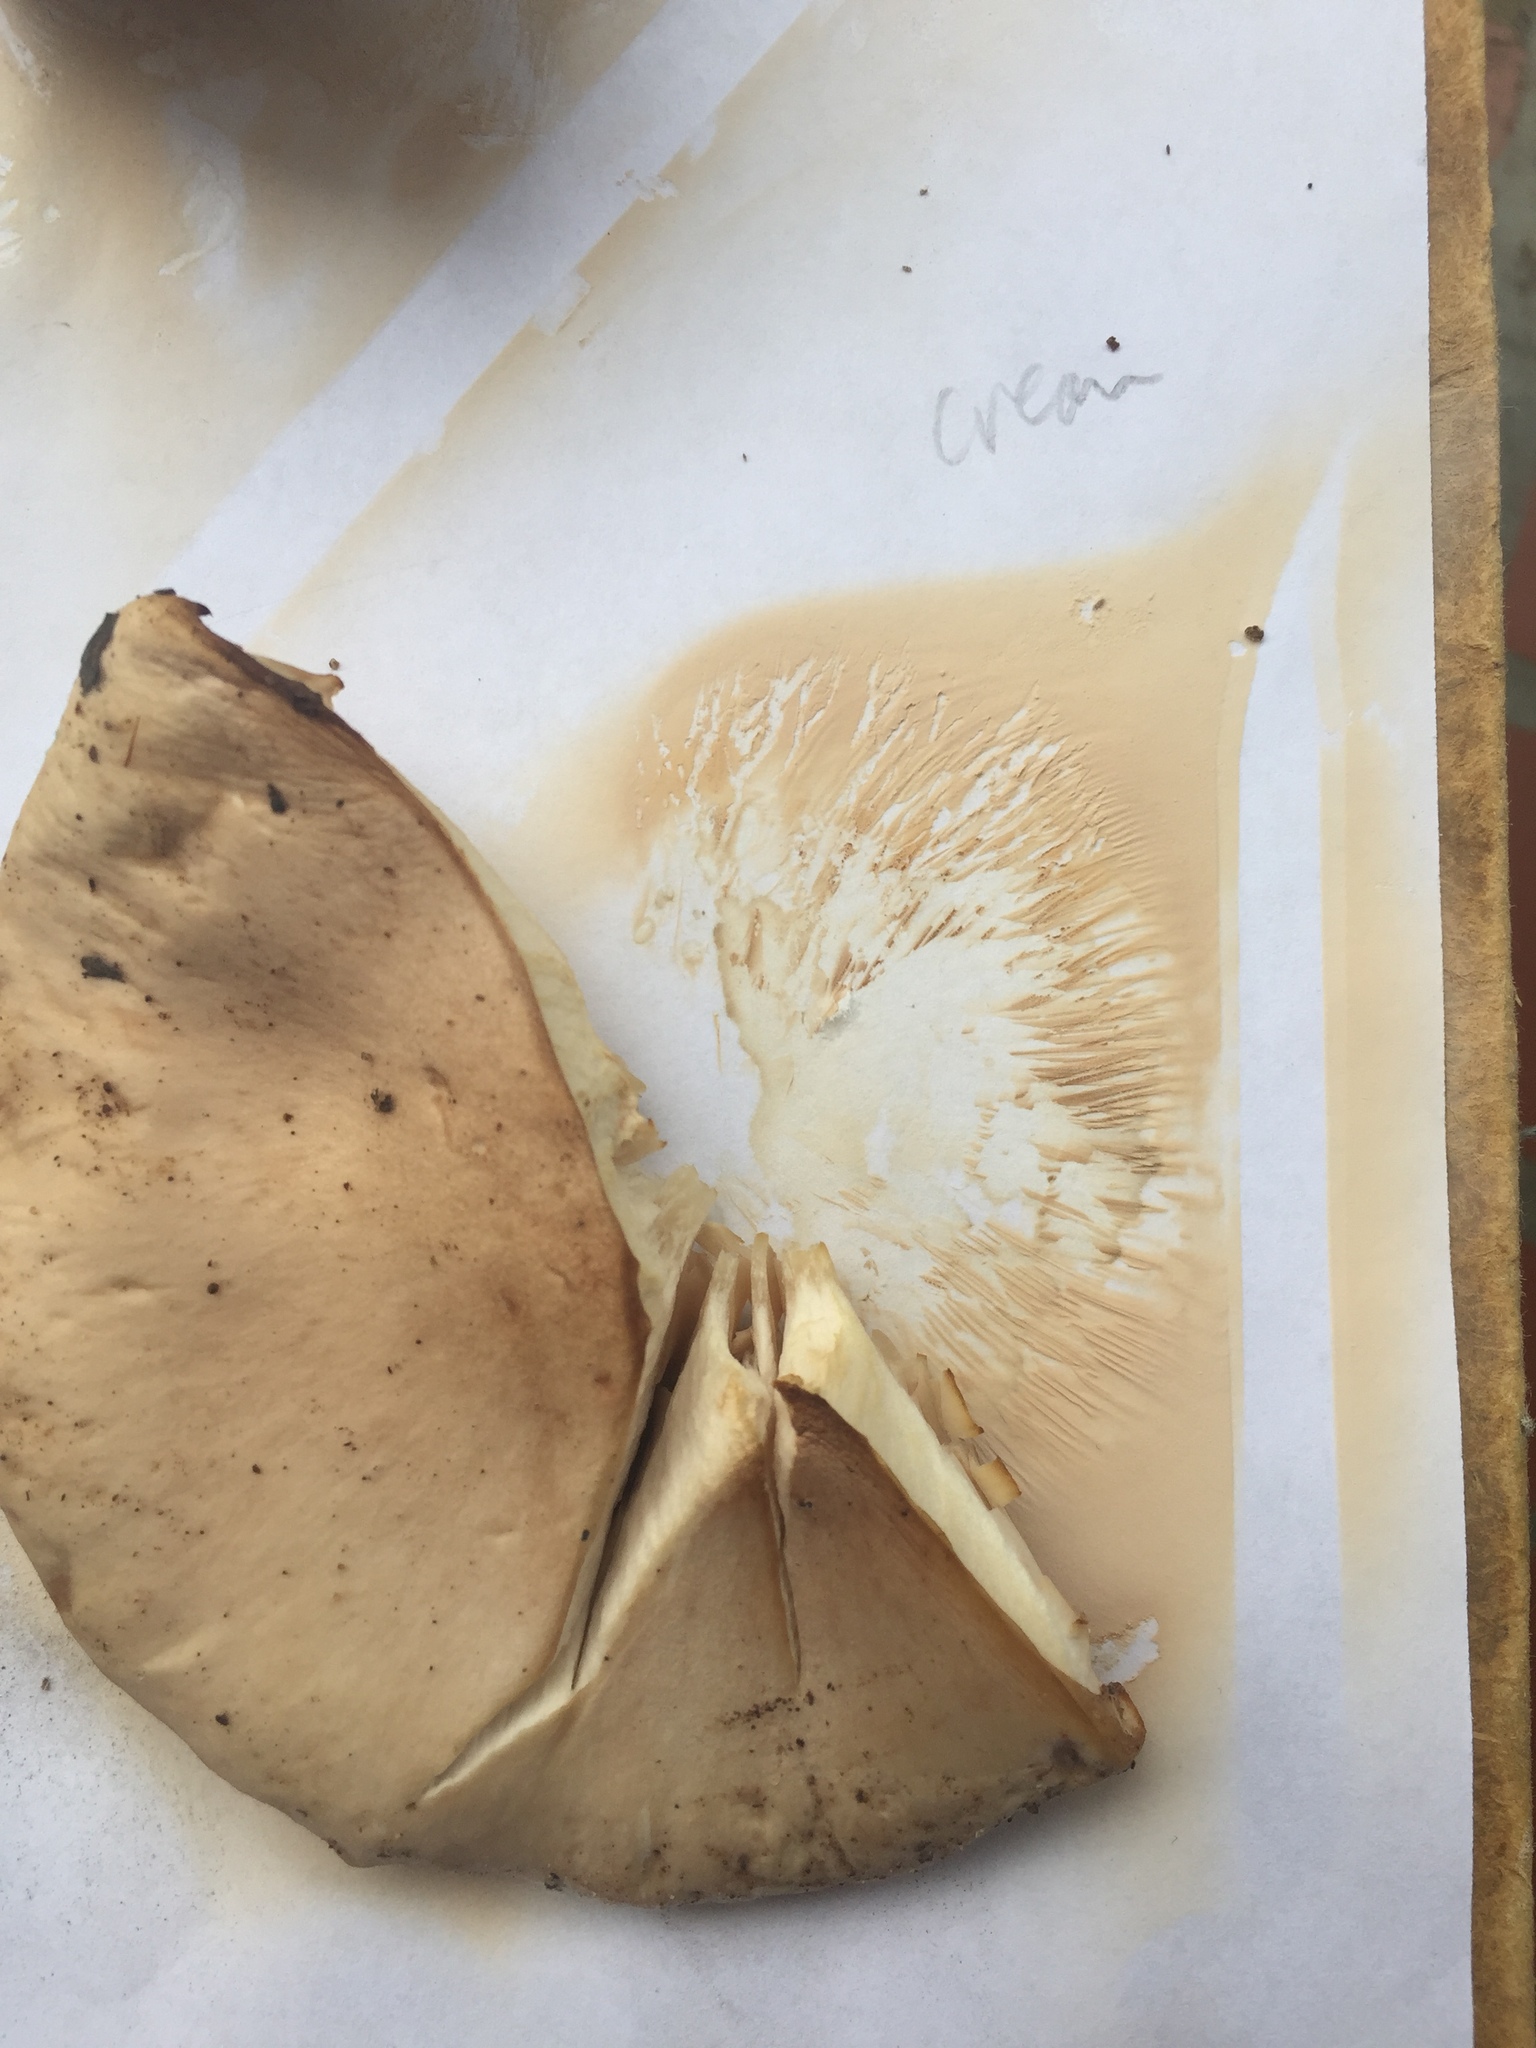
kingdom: Fungi
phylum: Basidiomycota
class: Agaricomycetes
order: Agaricales
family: Tricholomataceae
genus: Collybia
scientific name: Collybia
